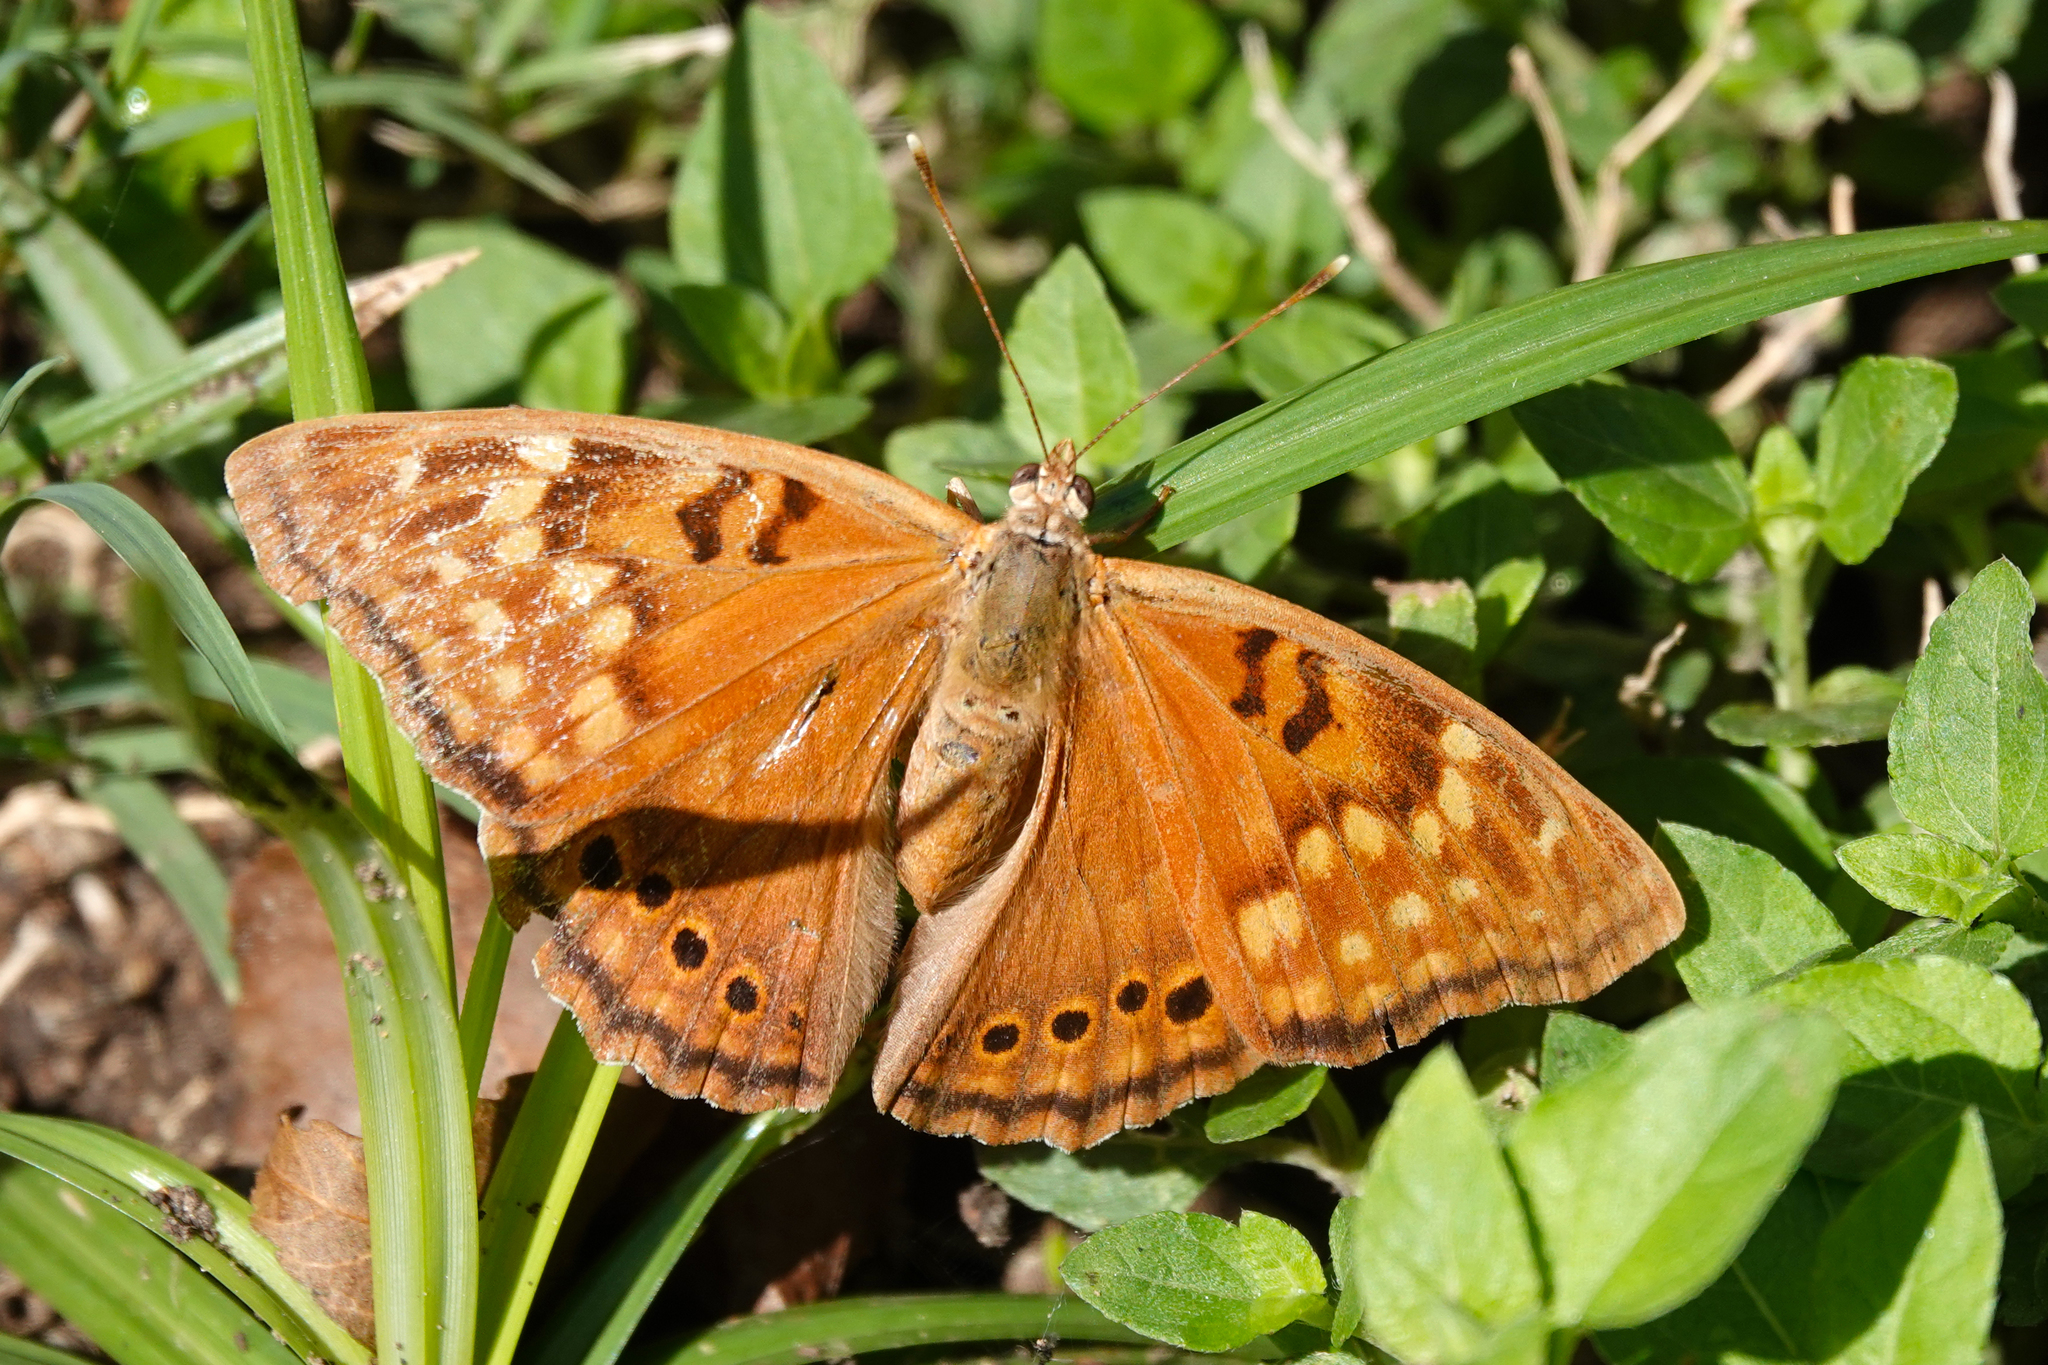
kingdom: Animalia
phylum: Arthropoda
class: Insecta
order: Lepidoptera
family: Nymphalidae
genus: Asterocampa
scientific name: Asterocampa clyton
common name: Tawny emperor
